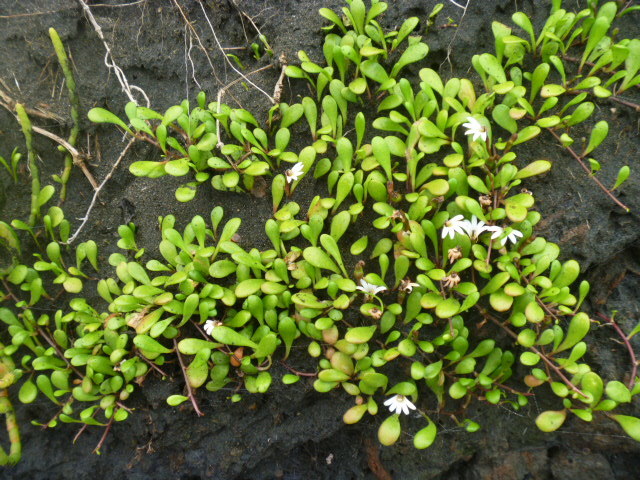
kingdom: Plantae
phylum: Tracheophyta
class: Magnoliopsida
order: Asterales
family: Goodeniaceae
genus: Goodenia
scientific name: Goodenia radicans
